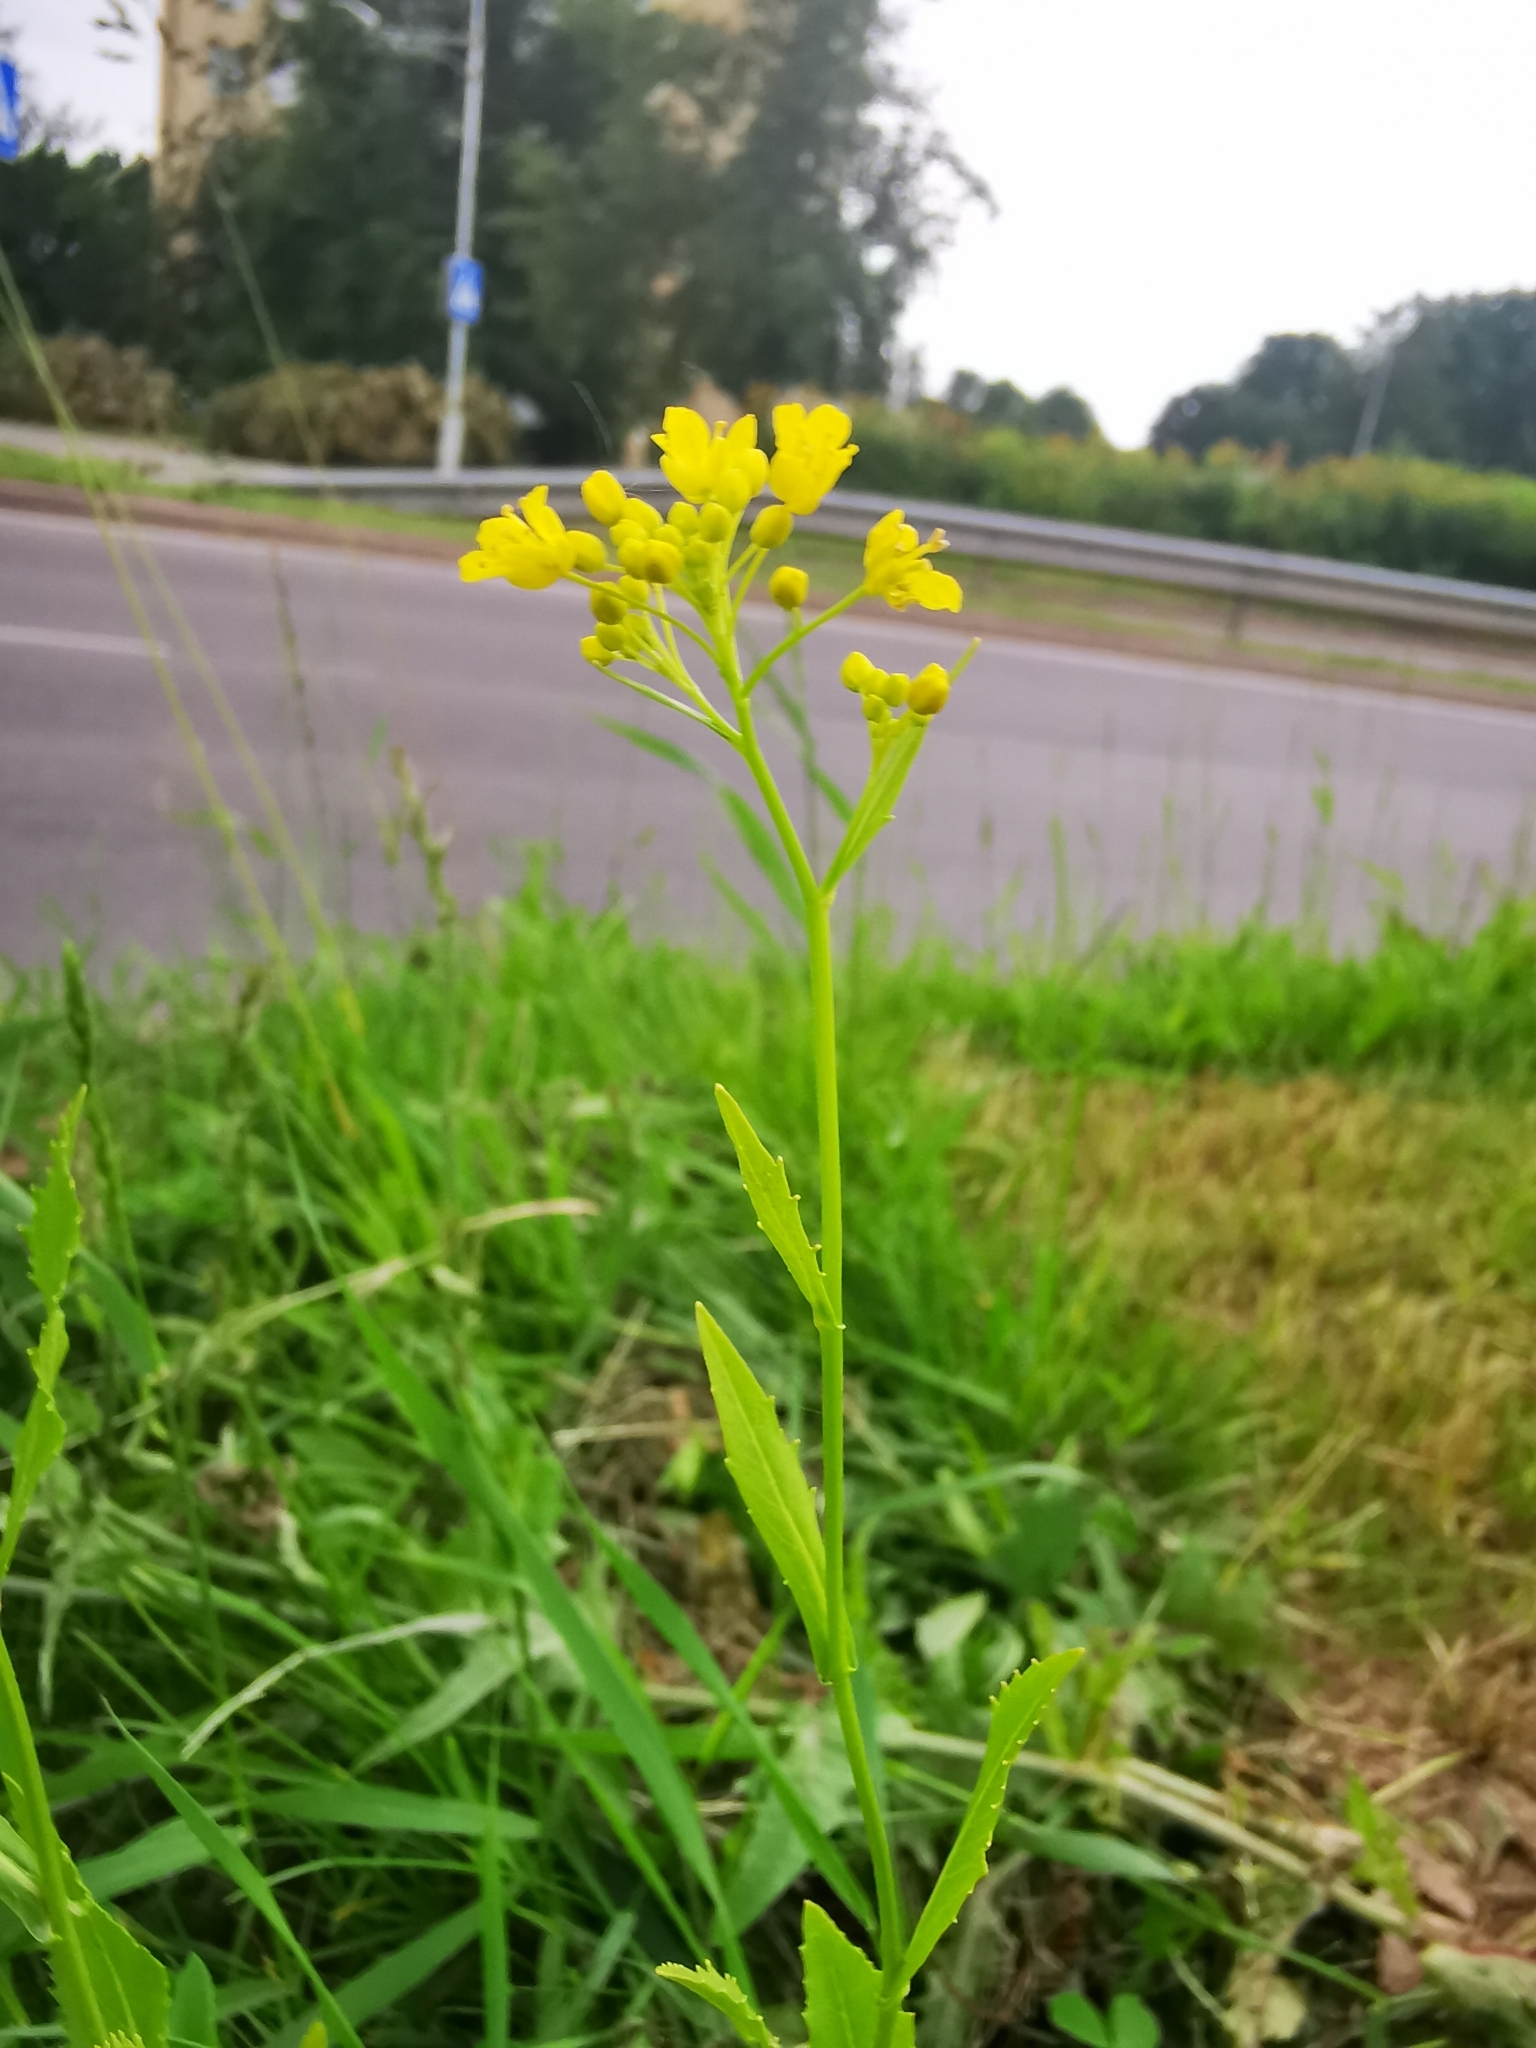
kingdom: Plantae
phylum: Tracheophyta
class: Magnoliopsida
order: Brassicales
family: Brassicaceae
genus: Rorippa
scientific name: Rorippa austriaca
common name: Austrian yellow-cress
